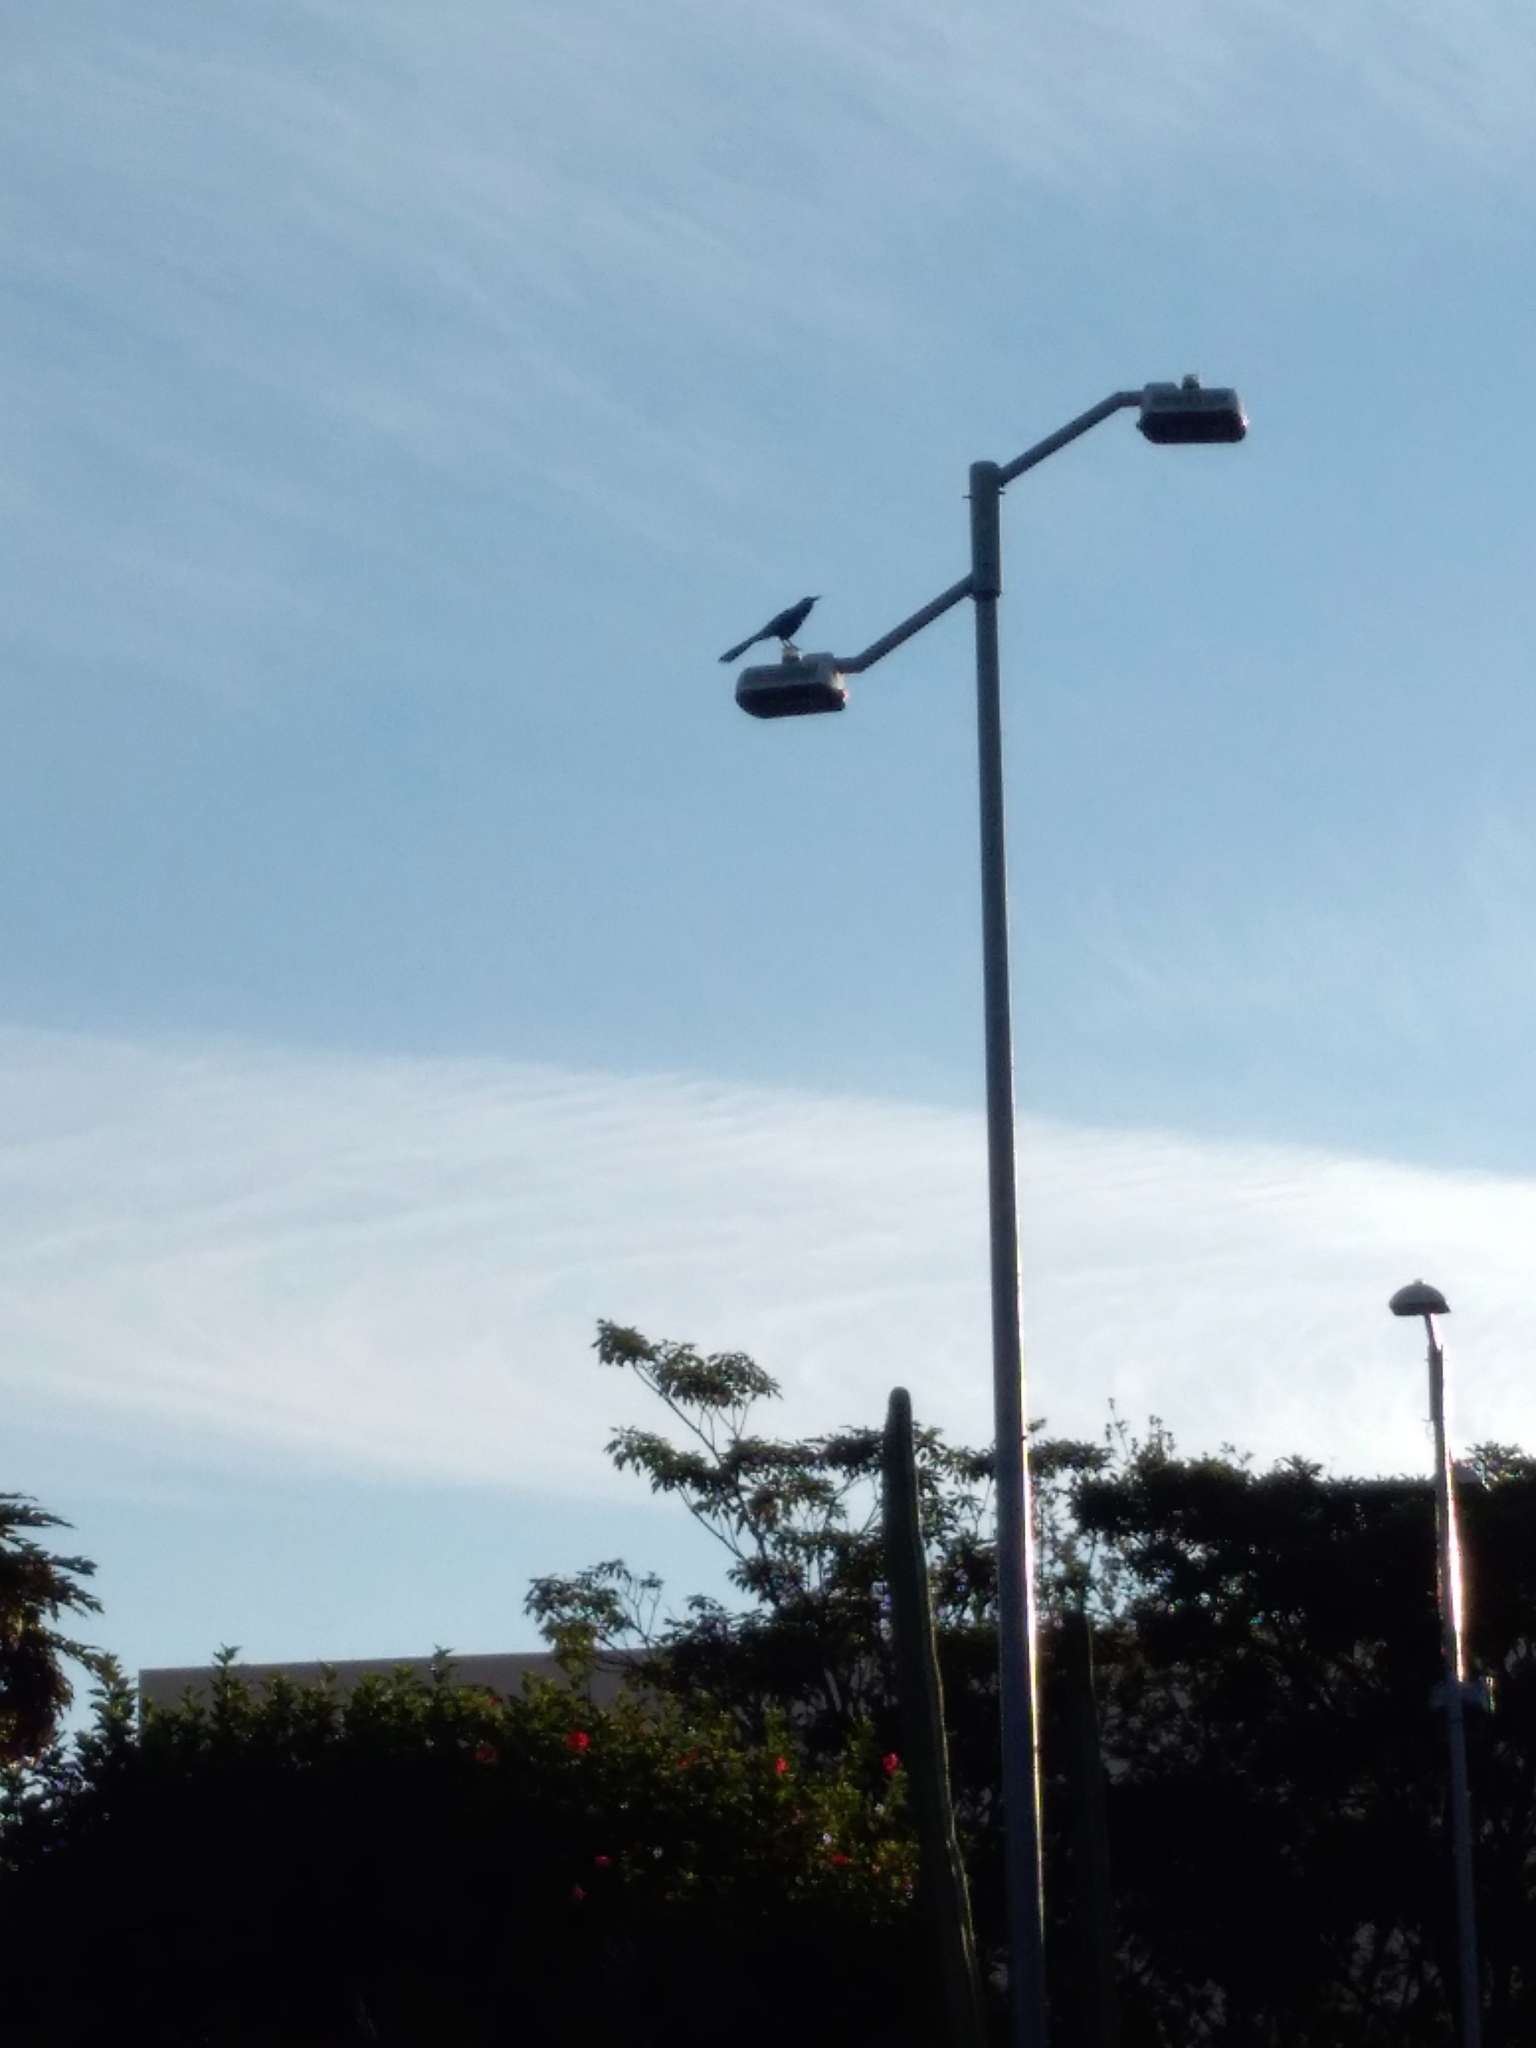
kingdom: Animalia
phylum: Chordata
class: Aves
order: Passeriformes
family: Icteridae
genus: Quiscalus
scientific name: Quiscalus mexicanus
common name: Great-tailed grackle
